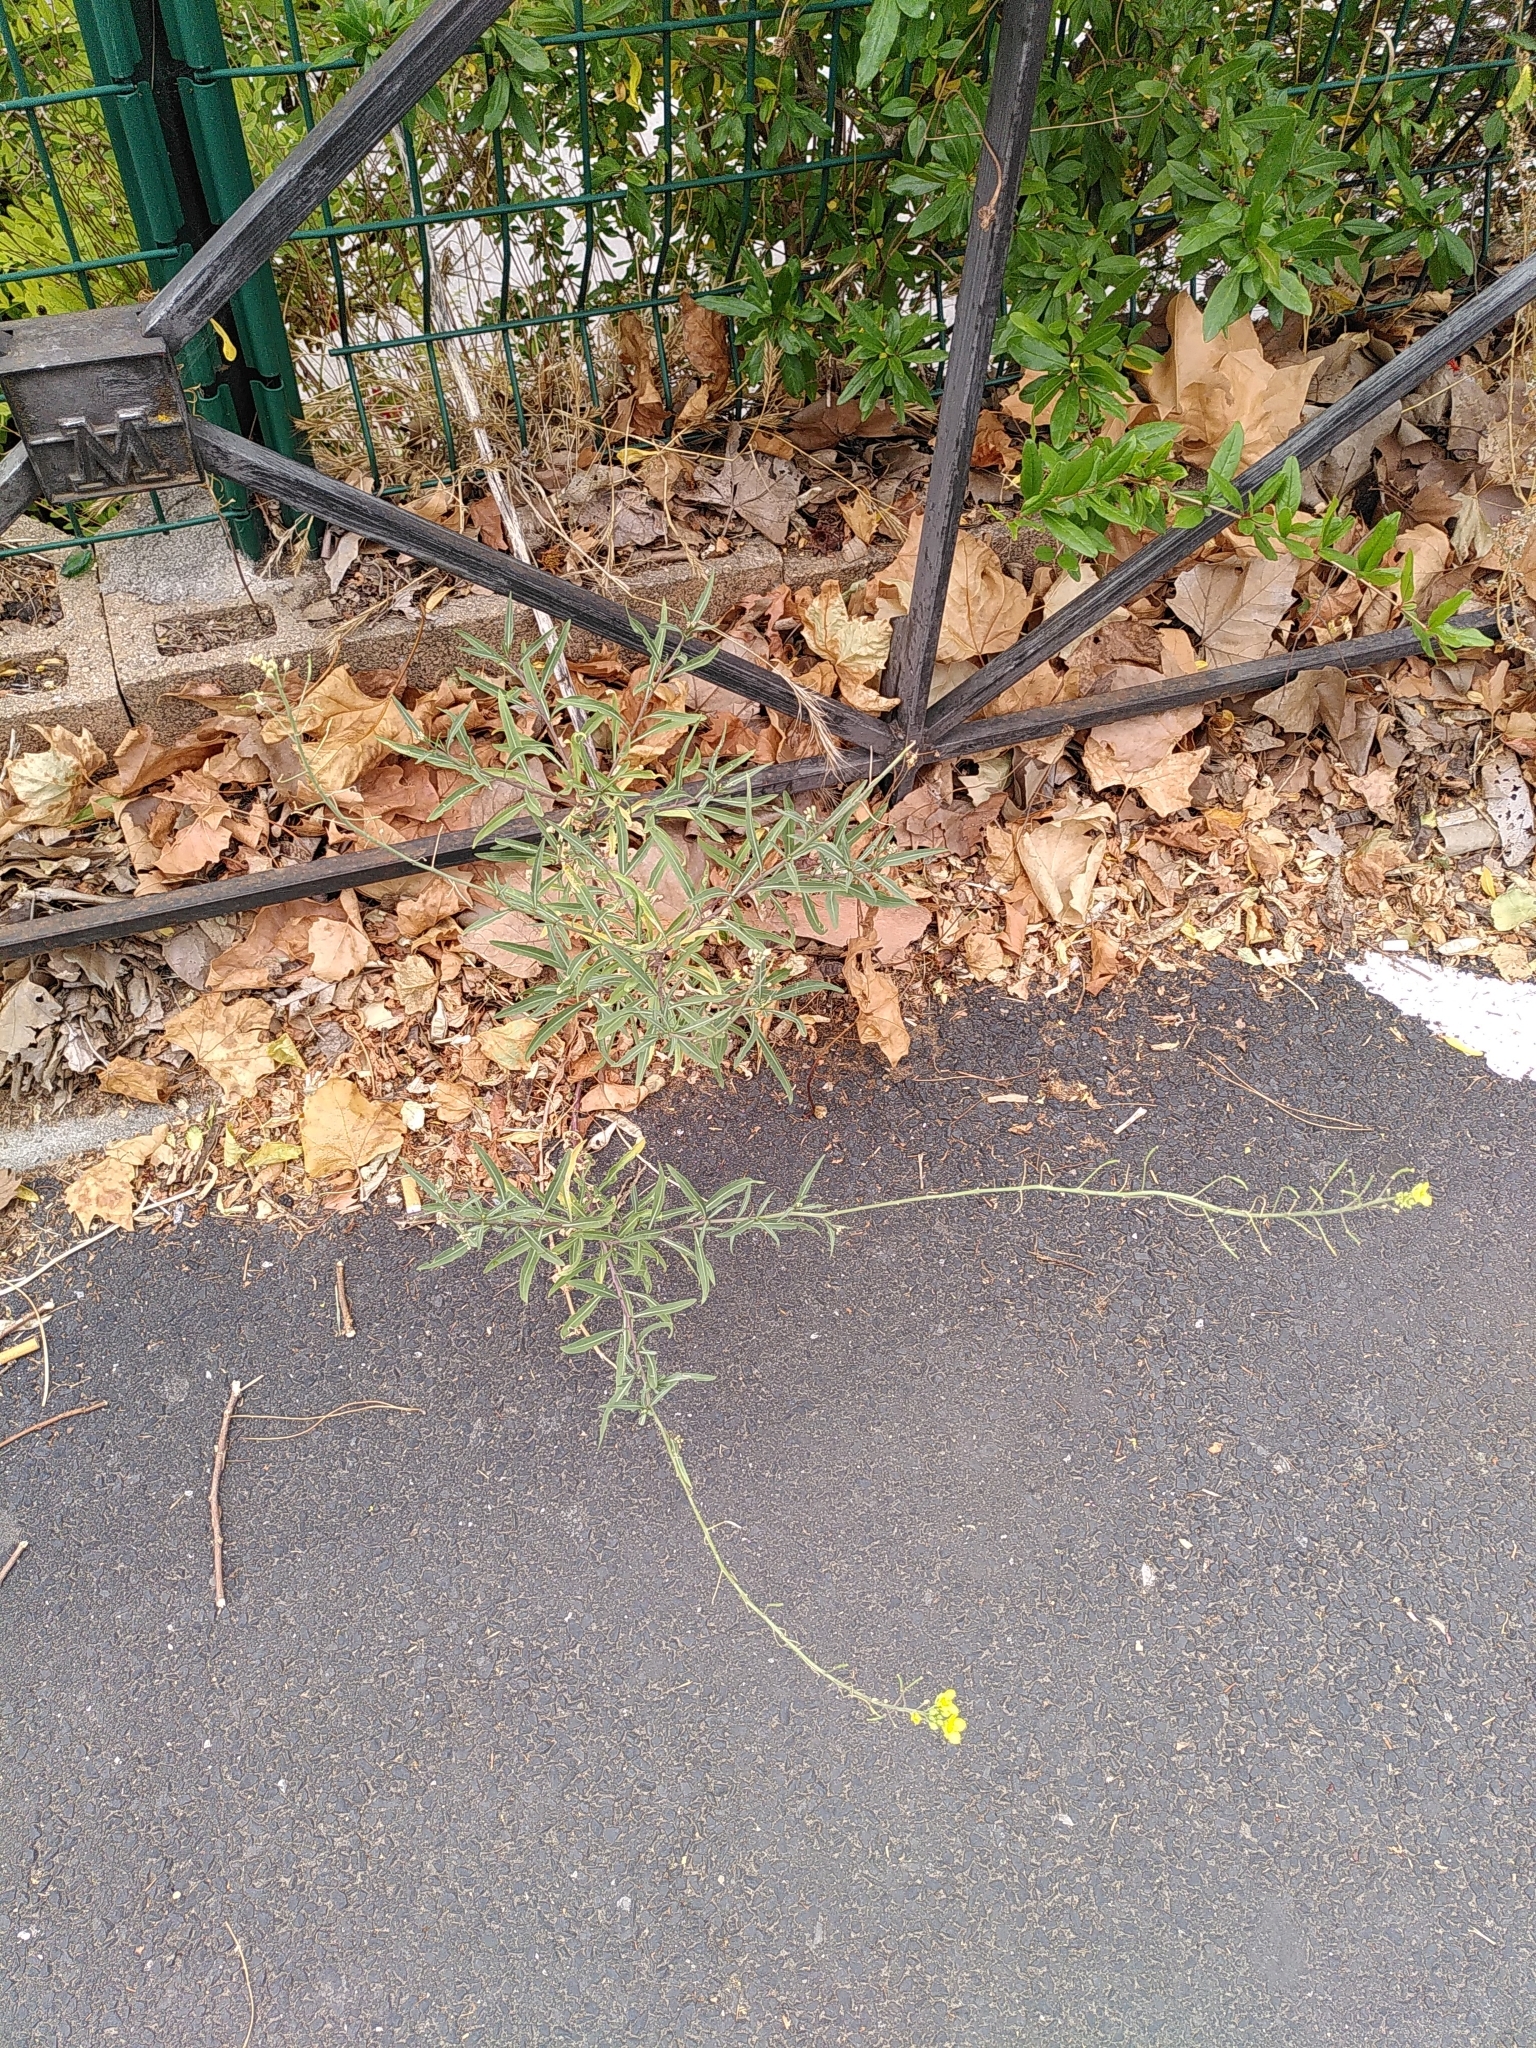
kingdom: Plantae
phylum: Tracheophyta
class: Magnoliopsida
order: Brassicales
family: Brassicaceae
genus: Diplotaxis
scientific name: Diplotaxis tenuifolia
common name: Perennial wall-rocket
